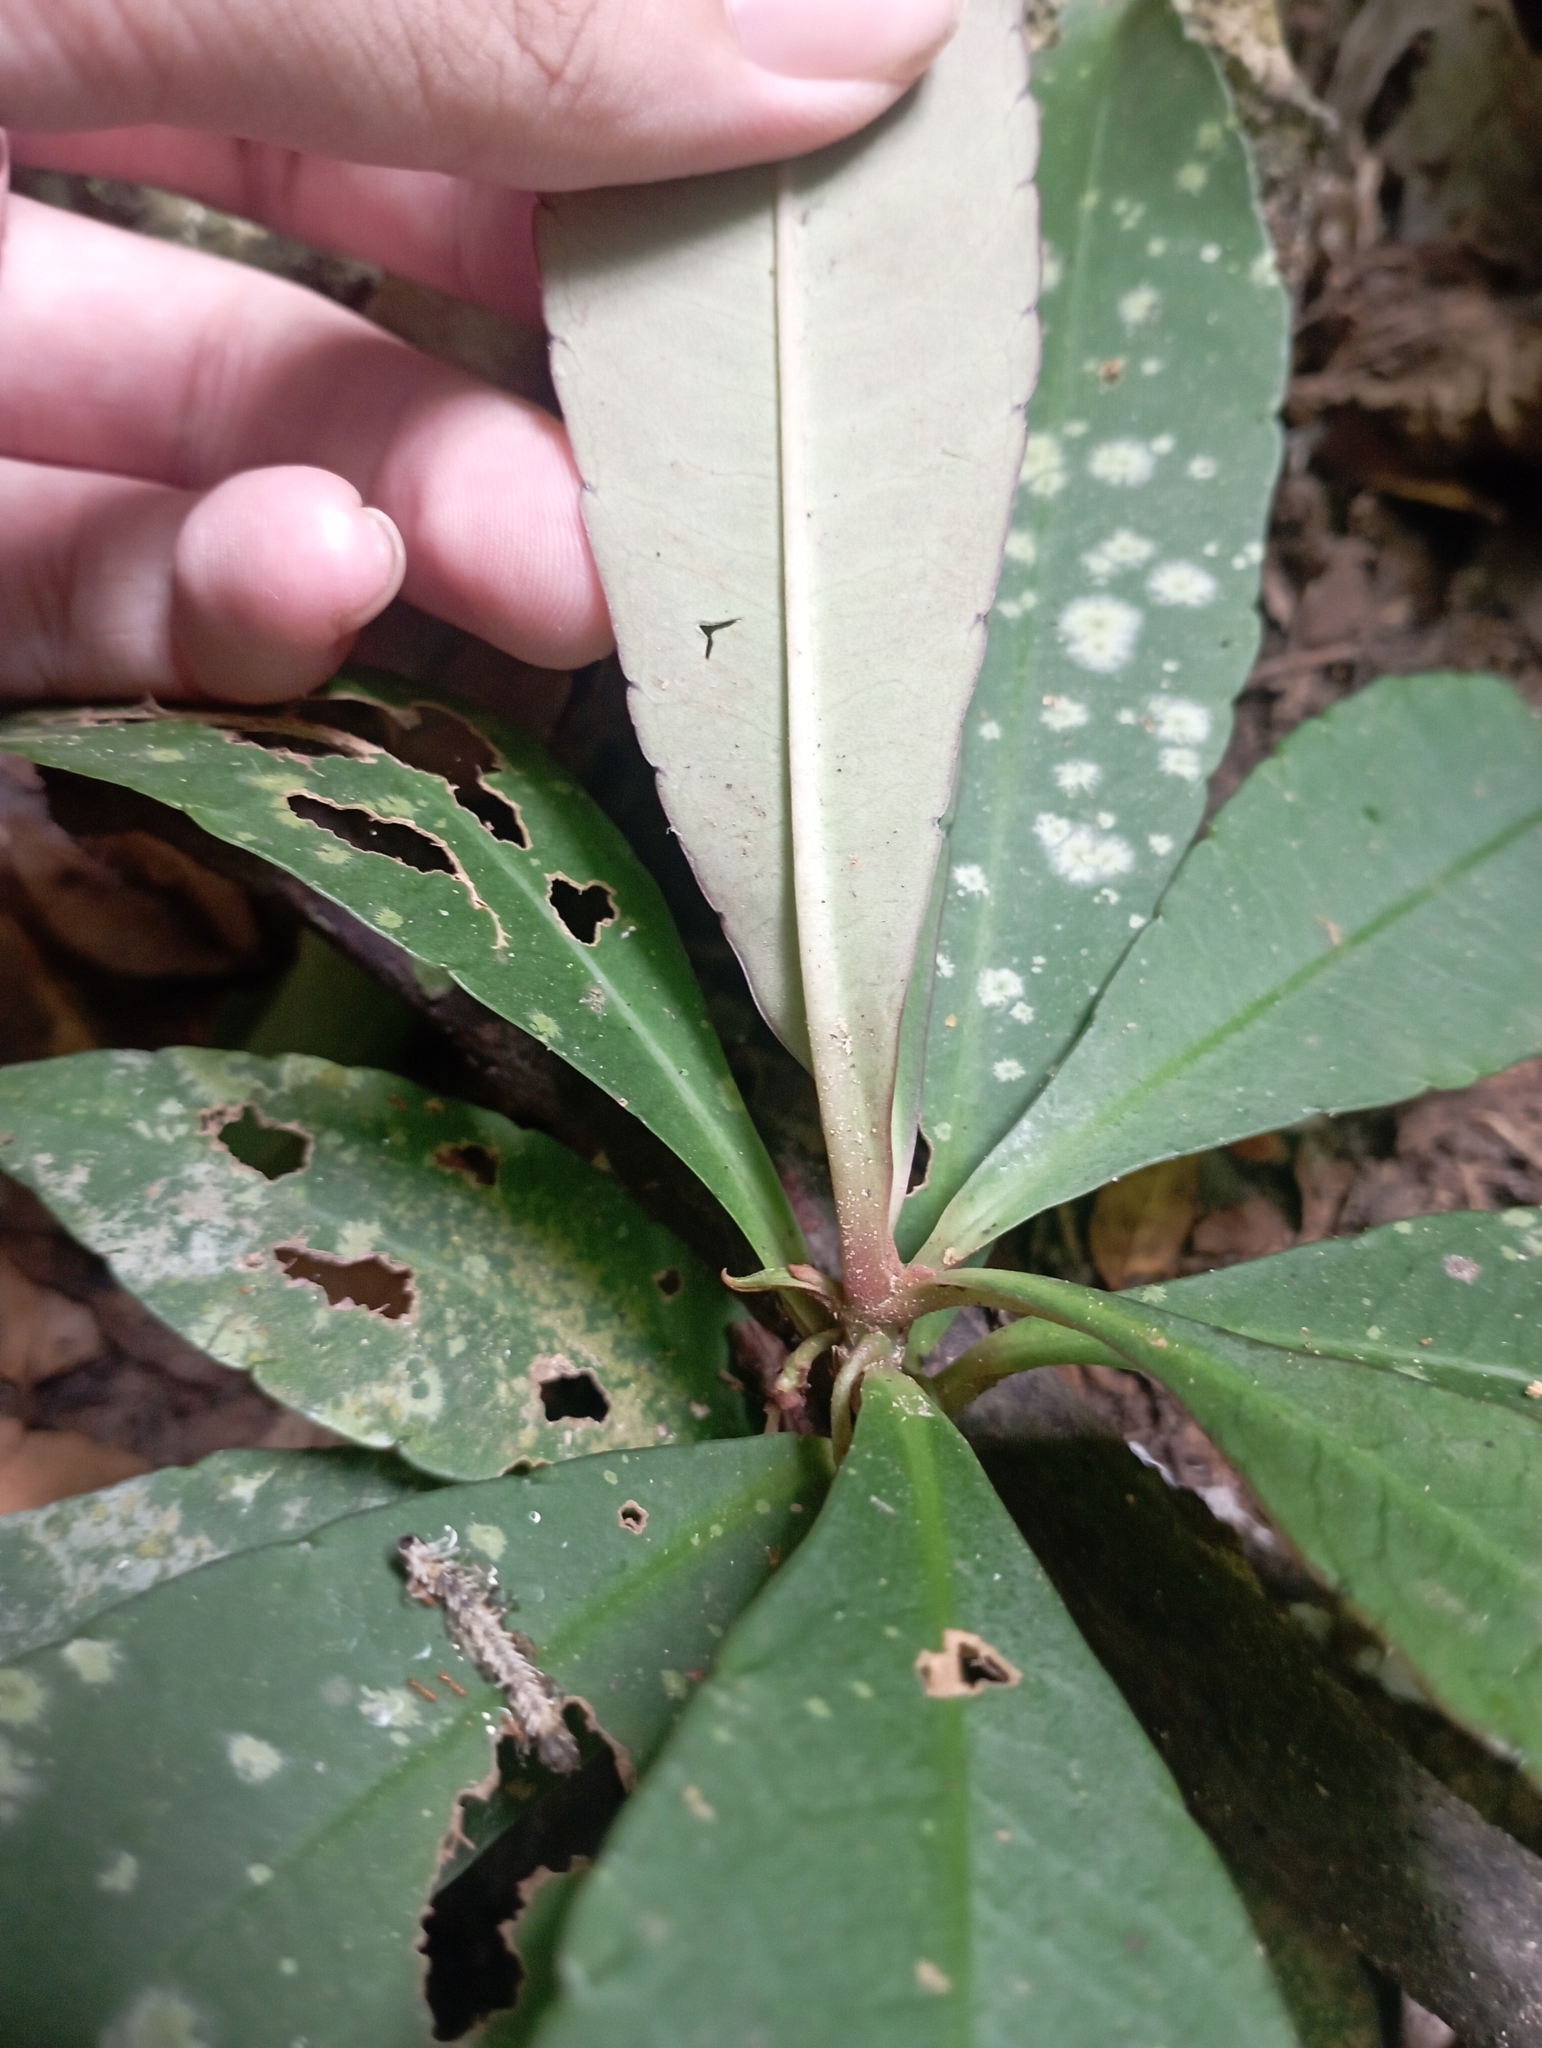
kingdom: Plantae
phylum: Tracheophyta
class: Magnoliopsida
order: Ericales
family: Primulaceae
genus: Ardisia
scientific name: Ardisia crenata
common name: Hen's eyes
